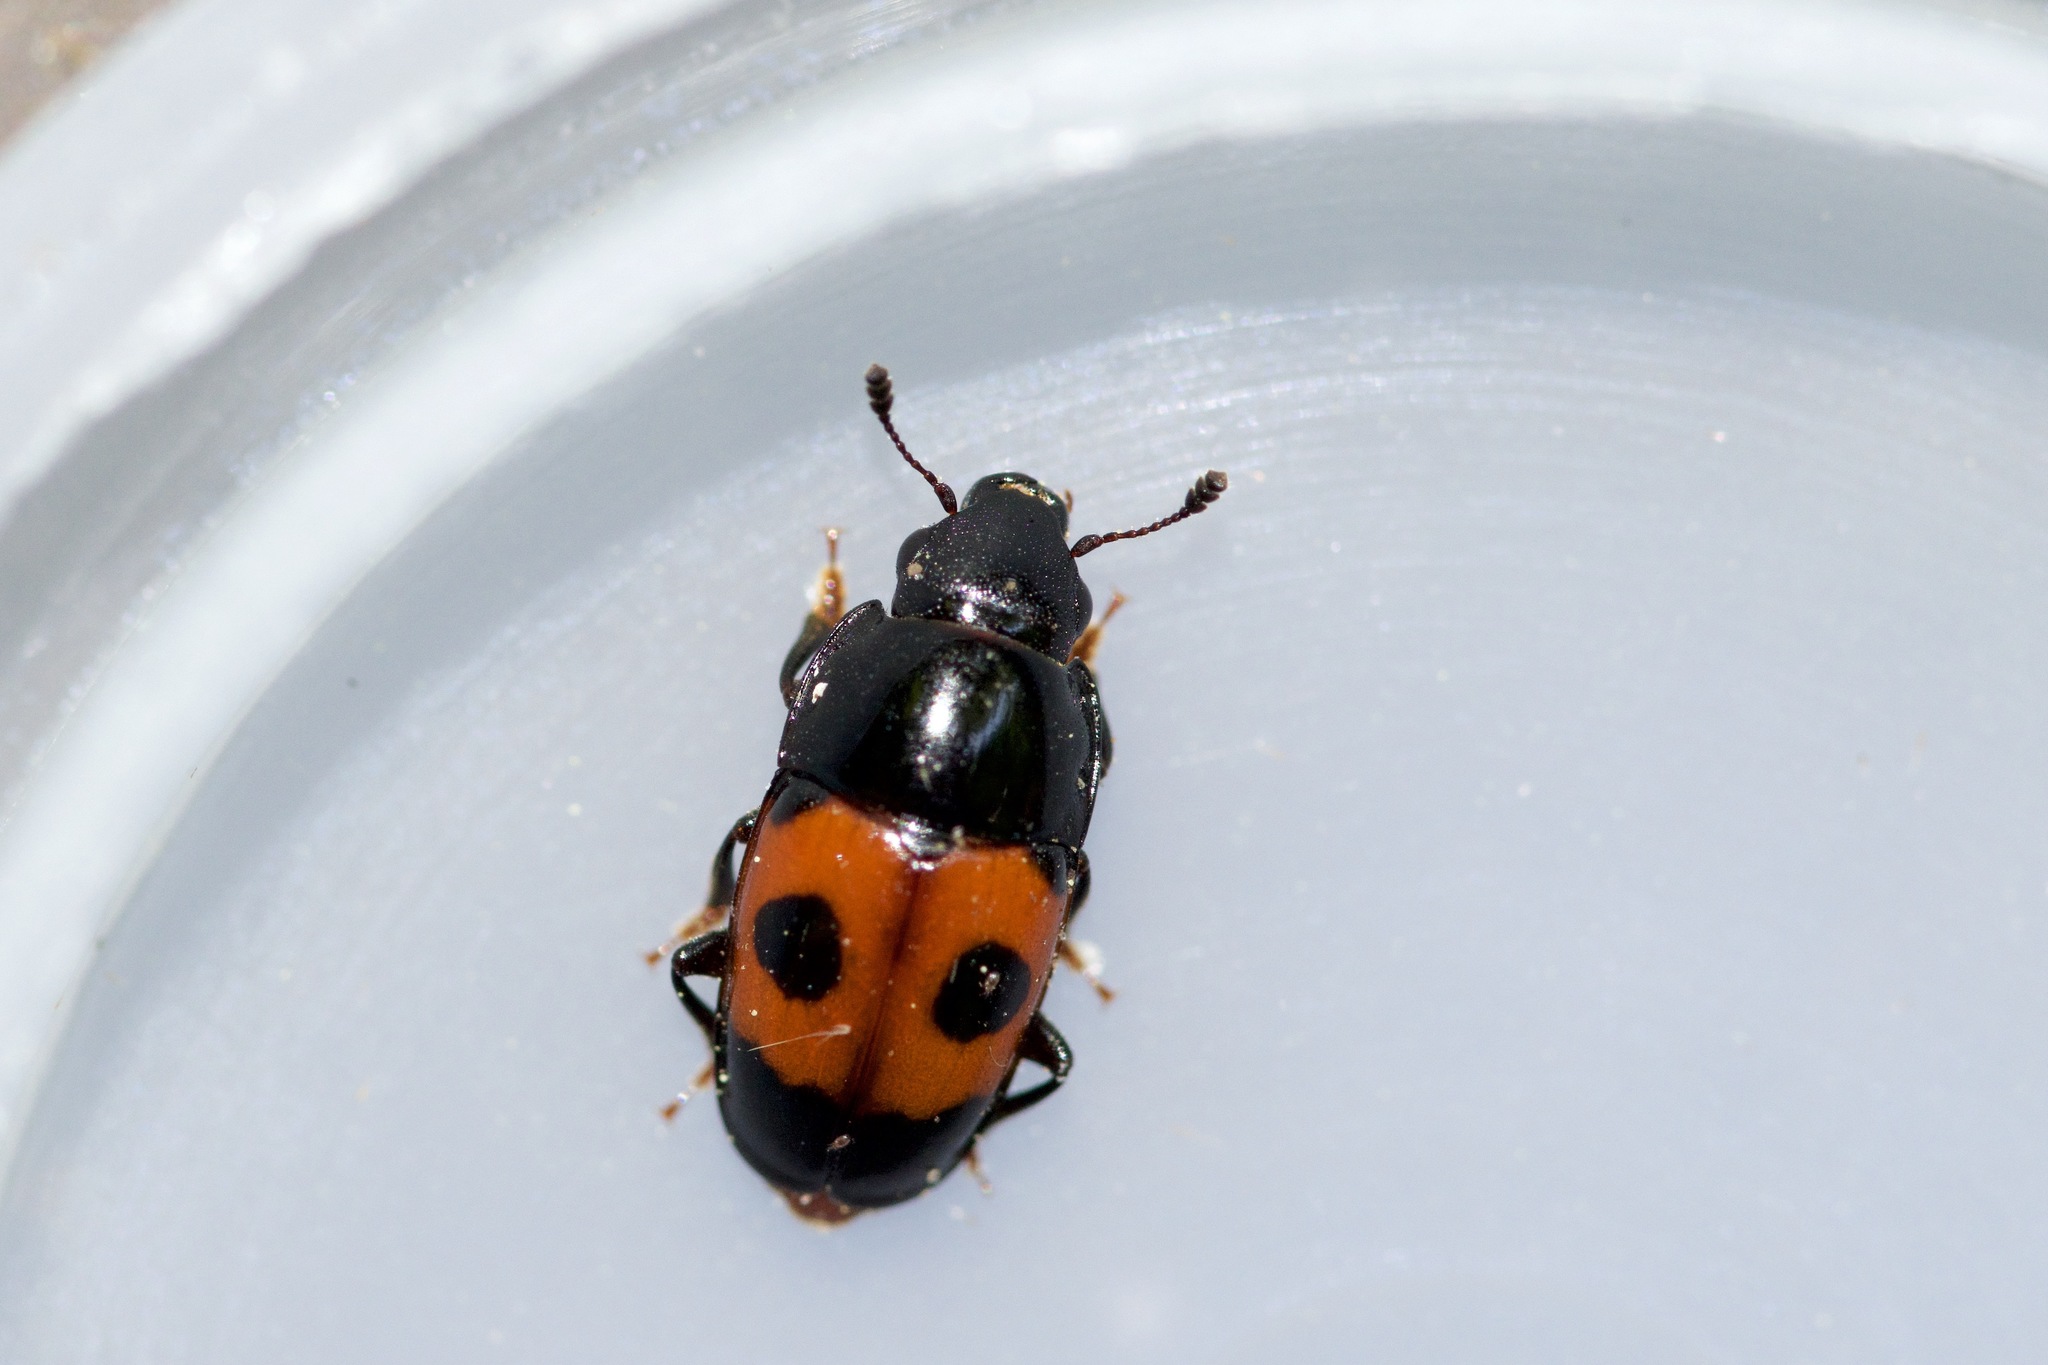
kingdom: Animalia
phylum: Arthropoda
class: Insecta
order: Coleoptera
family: Nitidulidae
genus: Glischrochilus
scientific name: Glischrochilus sanguinolentus
